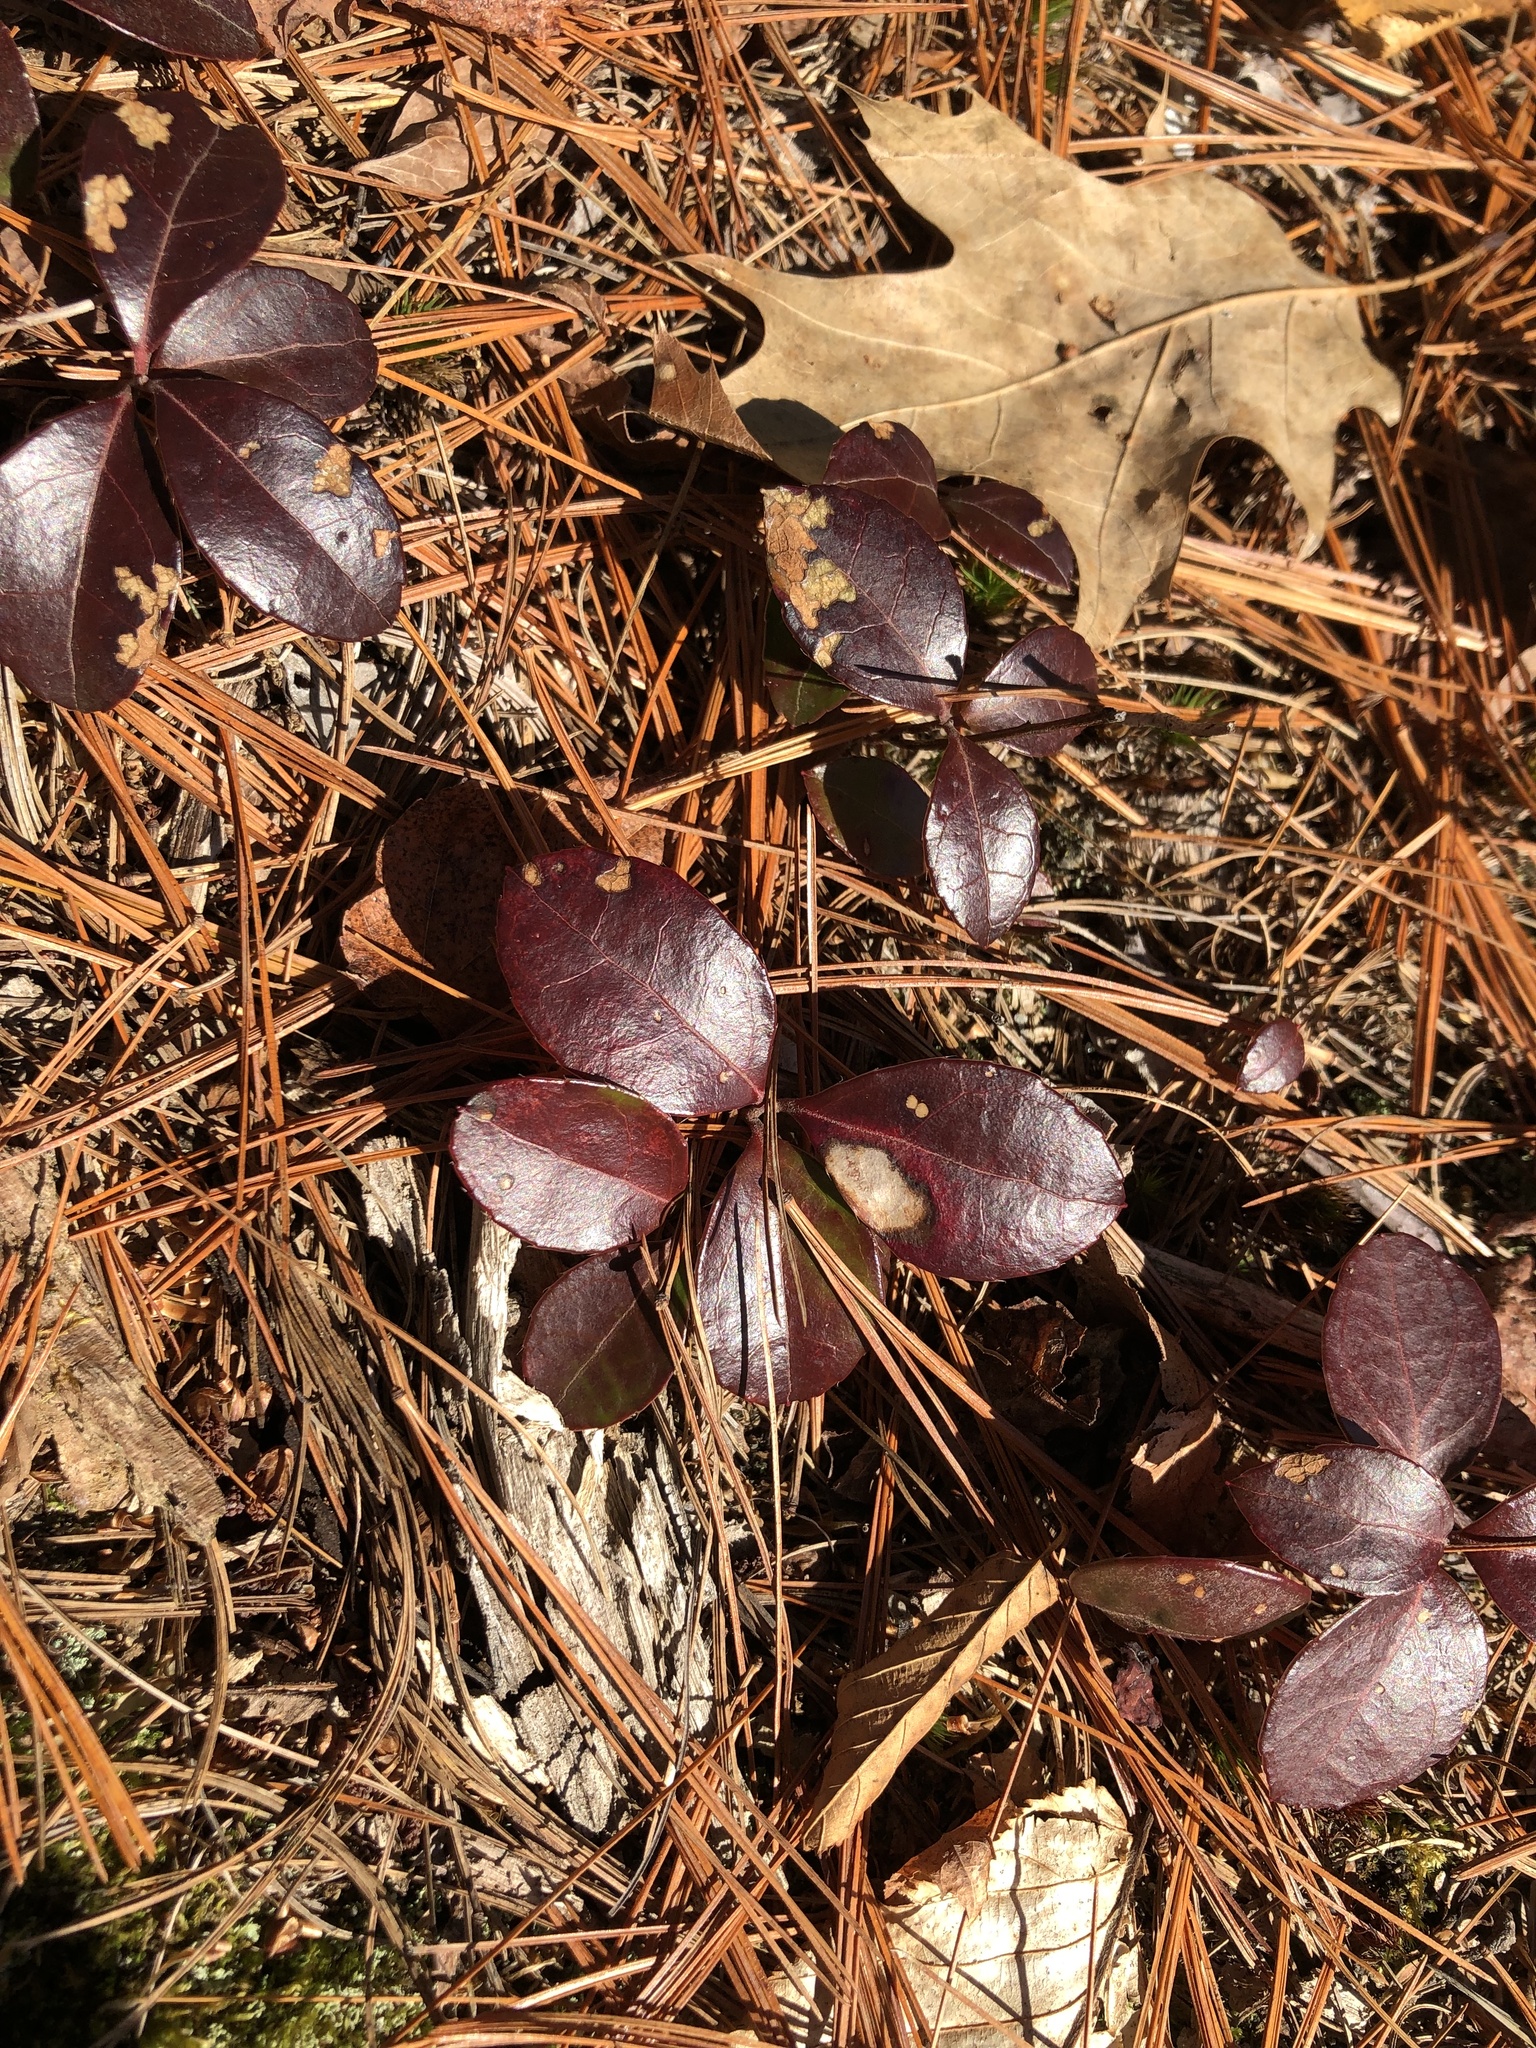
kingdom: Plantae
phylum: Tracheophyta
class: Magnoliopsida
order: Ericales
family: Ericaceae
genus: Gaultheria
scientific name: Gaultheria procumbens
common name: Checkerberry
